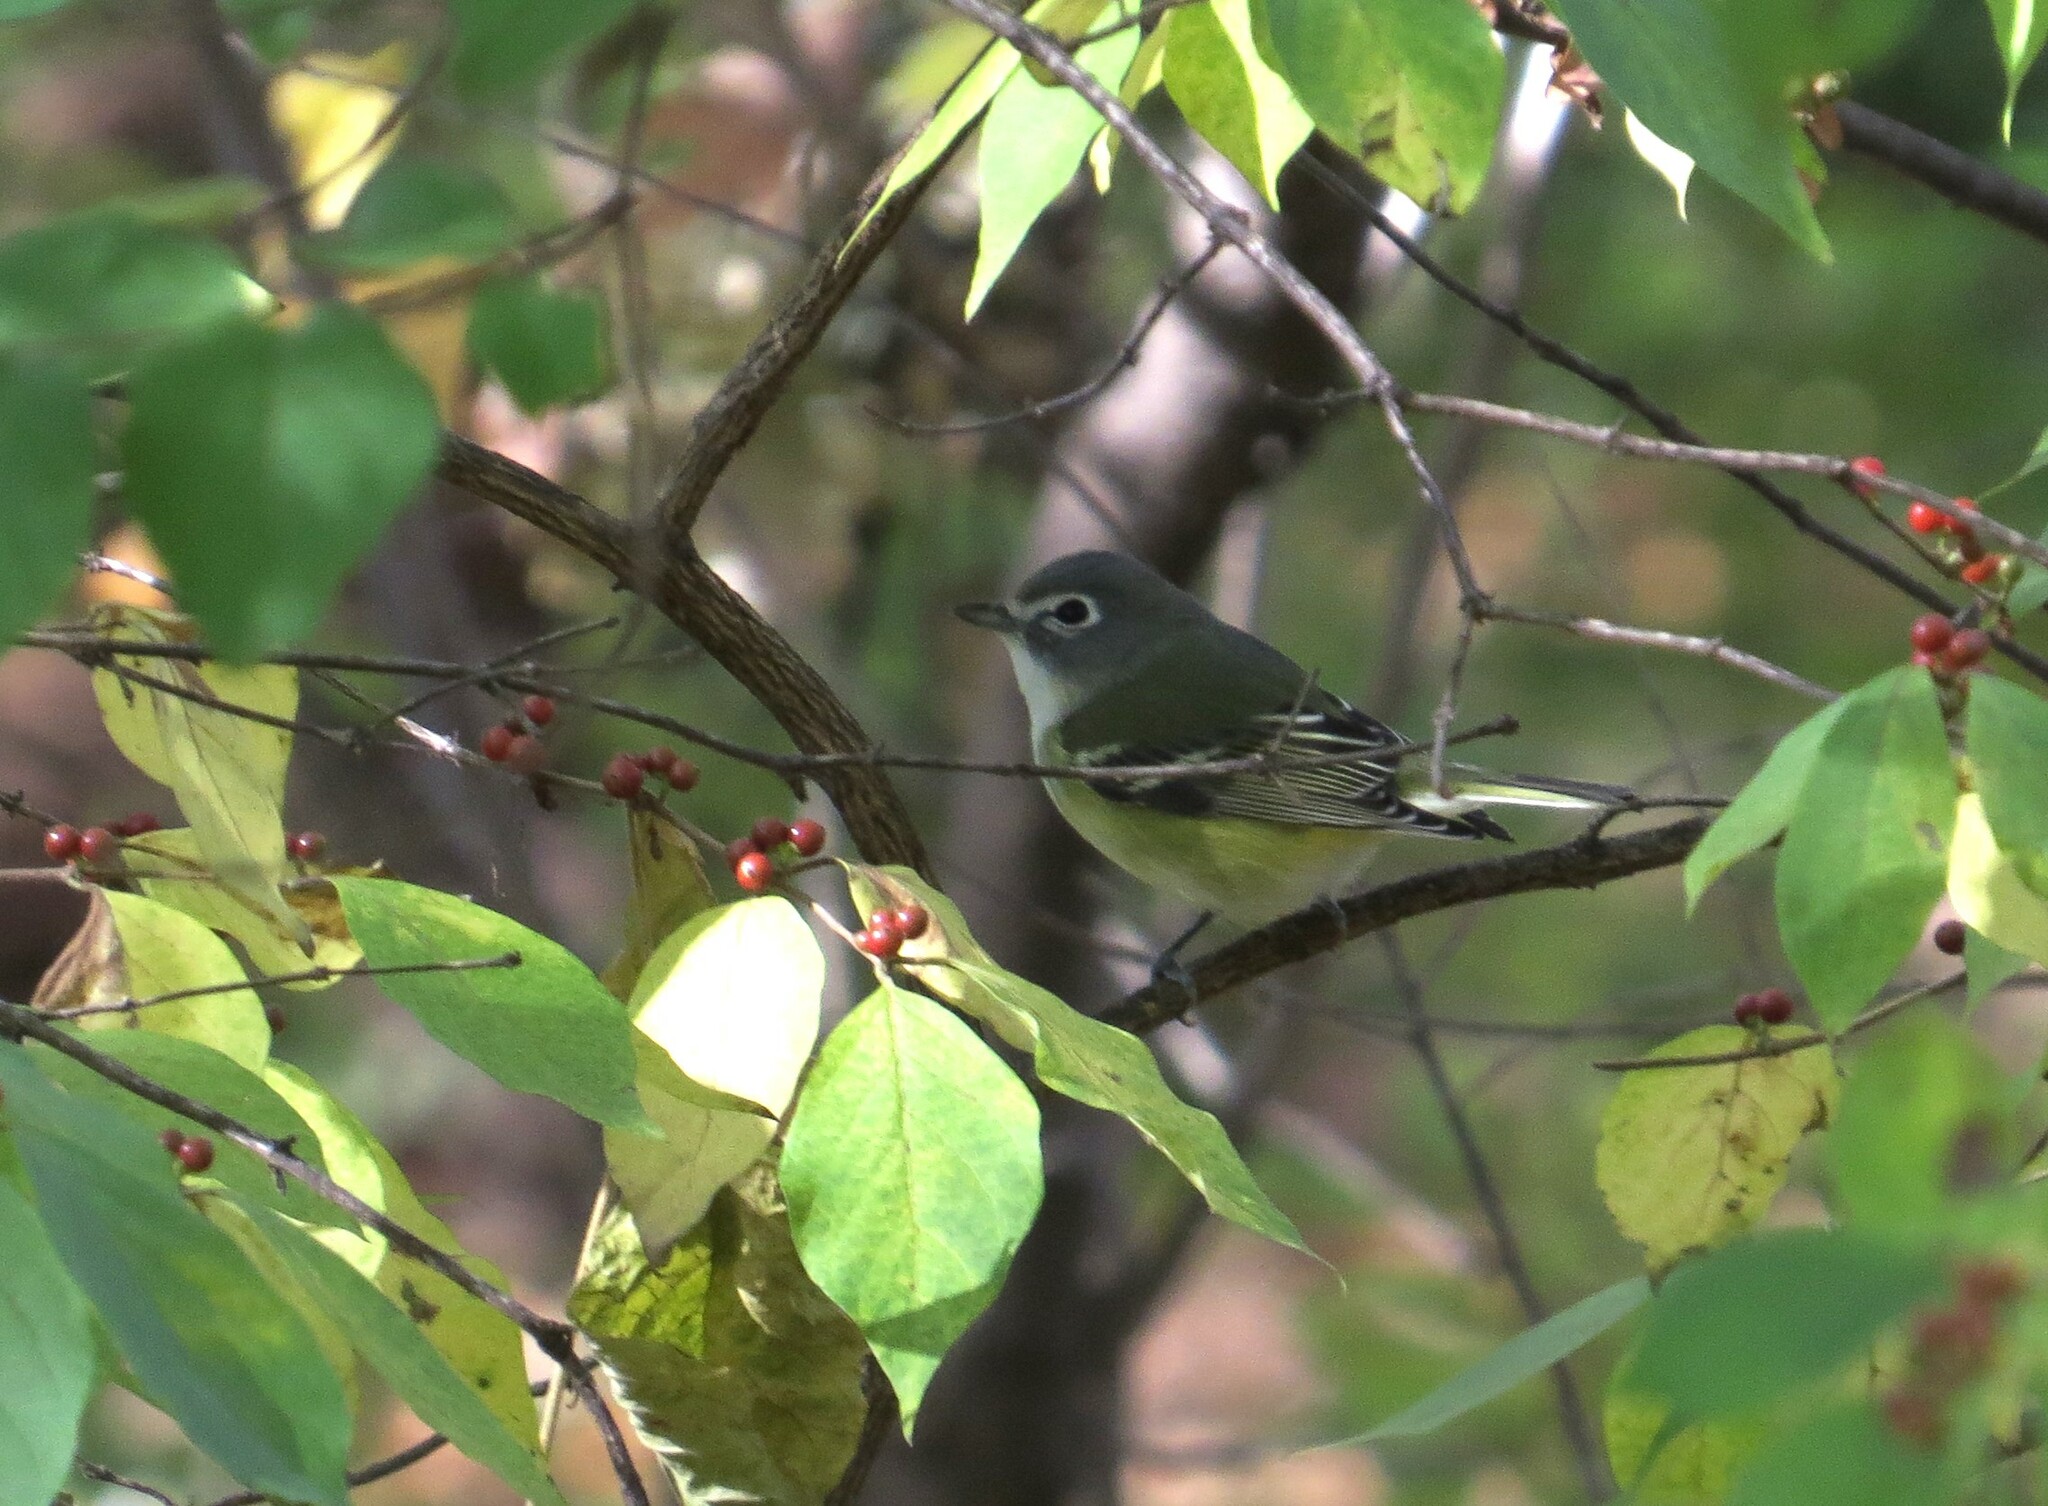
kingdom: Animalia
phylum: Chordata
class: Aves
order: Passeriformes
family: Vireonidae
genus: Vireo
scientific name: Vireo solitarius
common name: Blue-headed vireo
